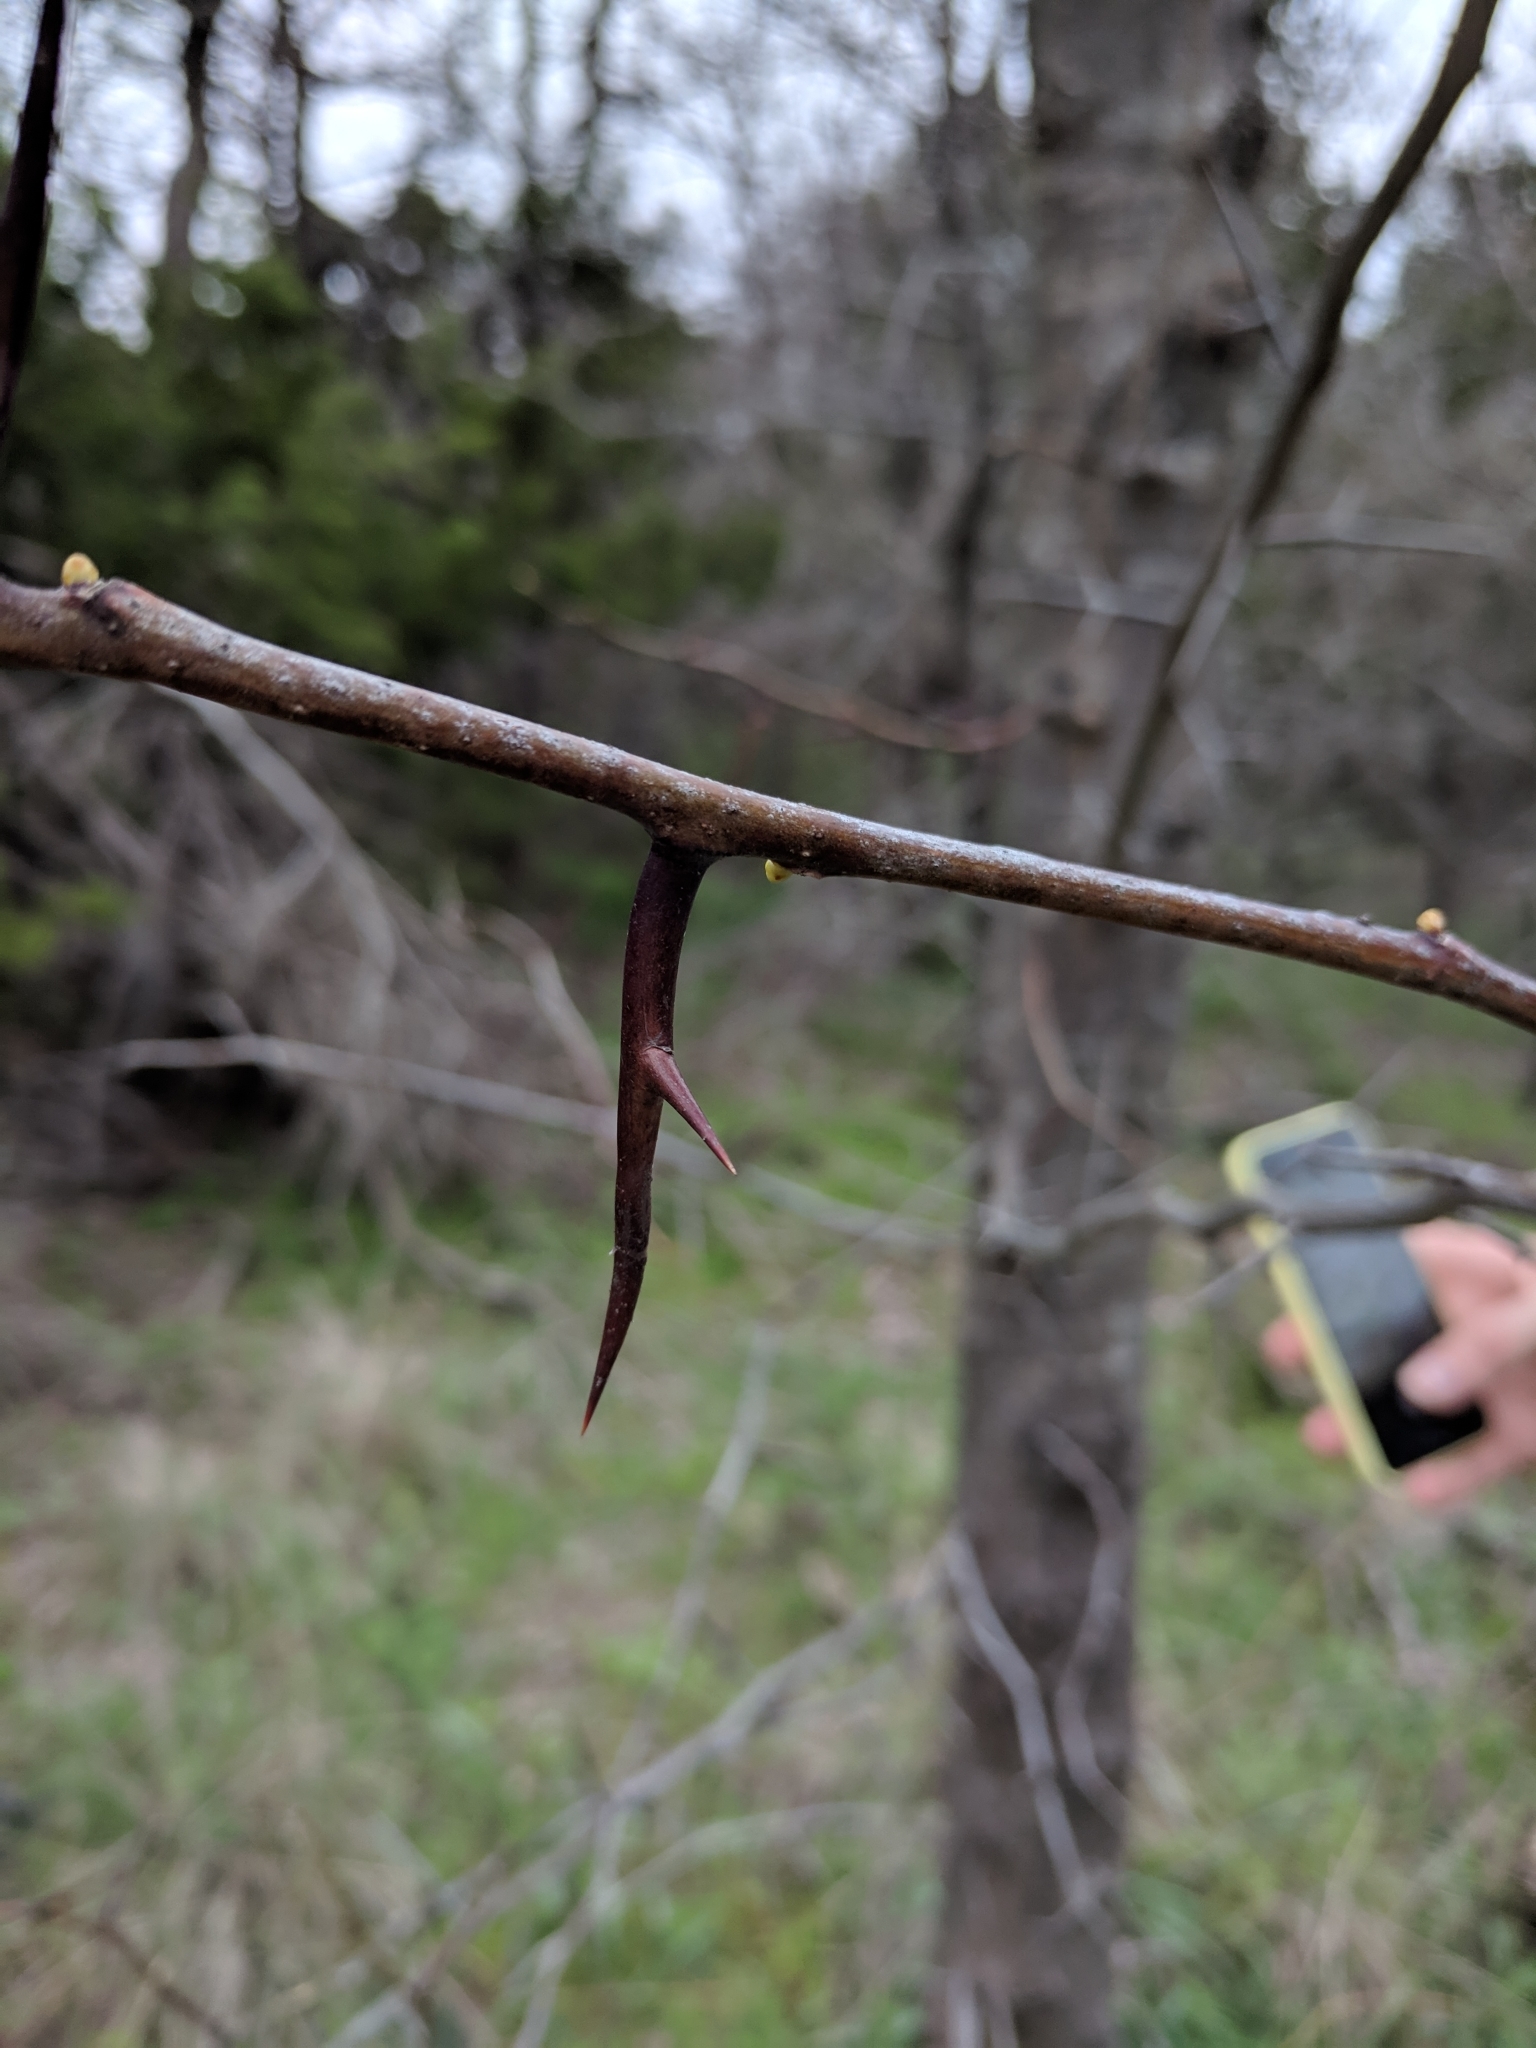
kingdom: Plantae
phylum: Tracheophyta
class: Magnoliopsida
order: Fabales
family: Fabaceae
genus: Gleditsia
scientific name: Gleditsia triacanthos
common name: Common honeylocust
